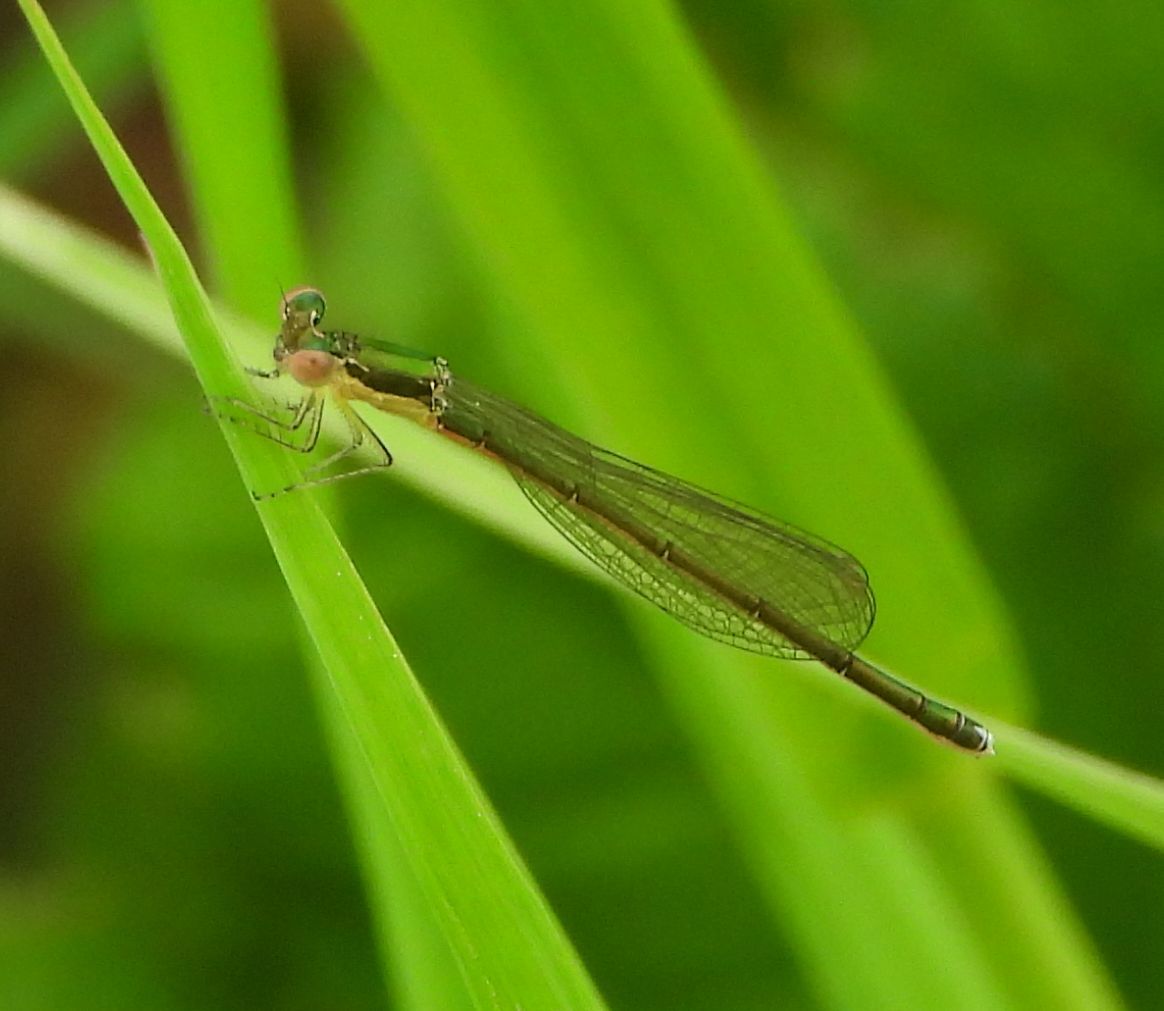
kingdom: Animalia
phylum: Arthropoda
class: Insecta
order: Odonata
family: Coenagrionidae
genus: Nehalennia
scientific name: Nehalennia irene
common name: Sedge sprite
